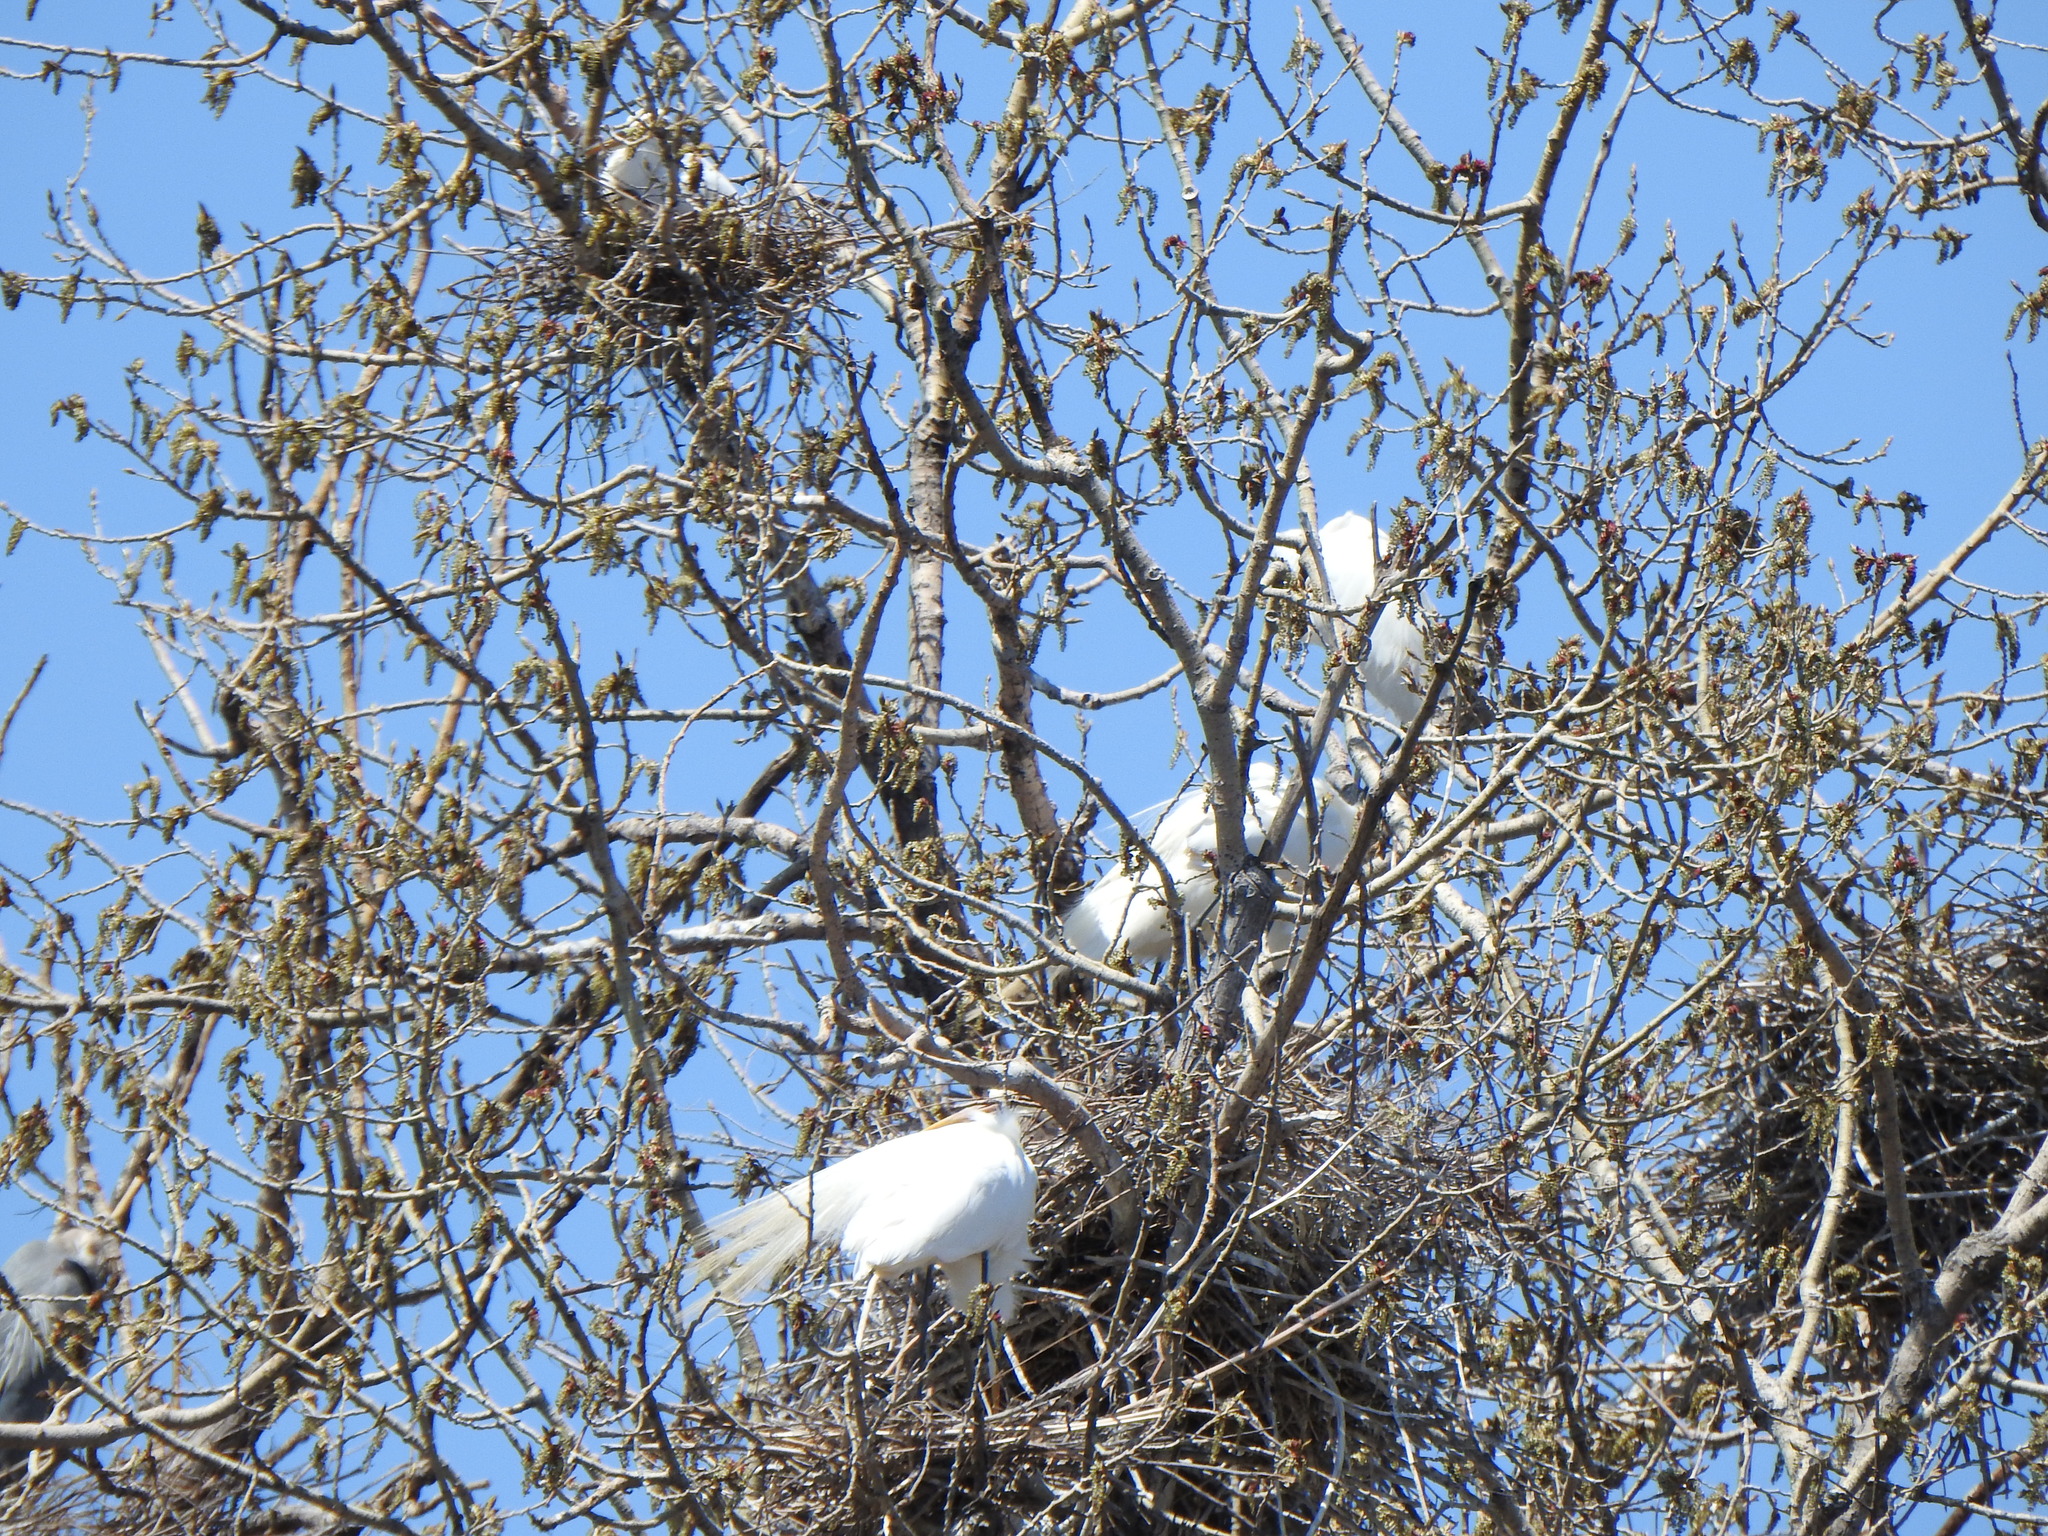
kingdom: Animalia
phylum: Chordata
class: Aves
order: Pelecaniformes
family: Ardeidae
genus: Ardea
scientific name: Ardea alba
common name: Great egret
